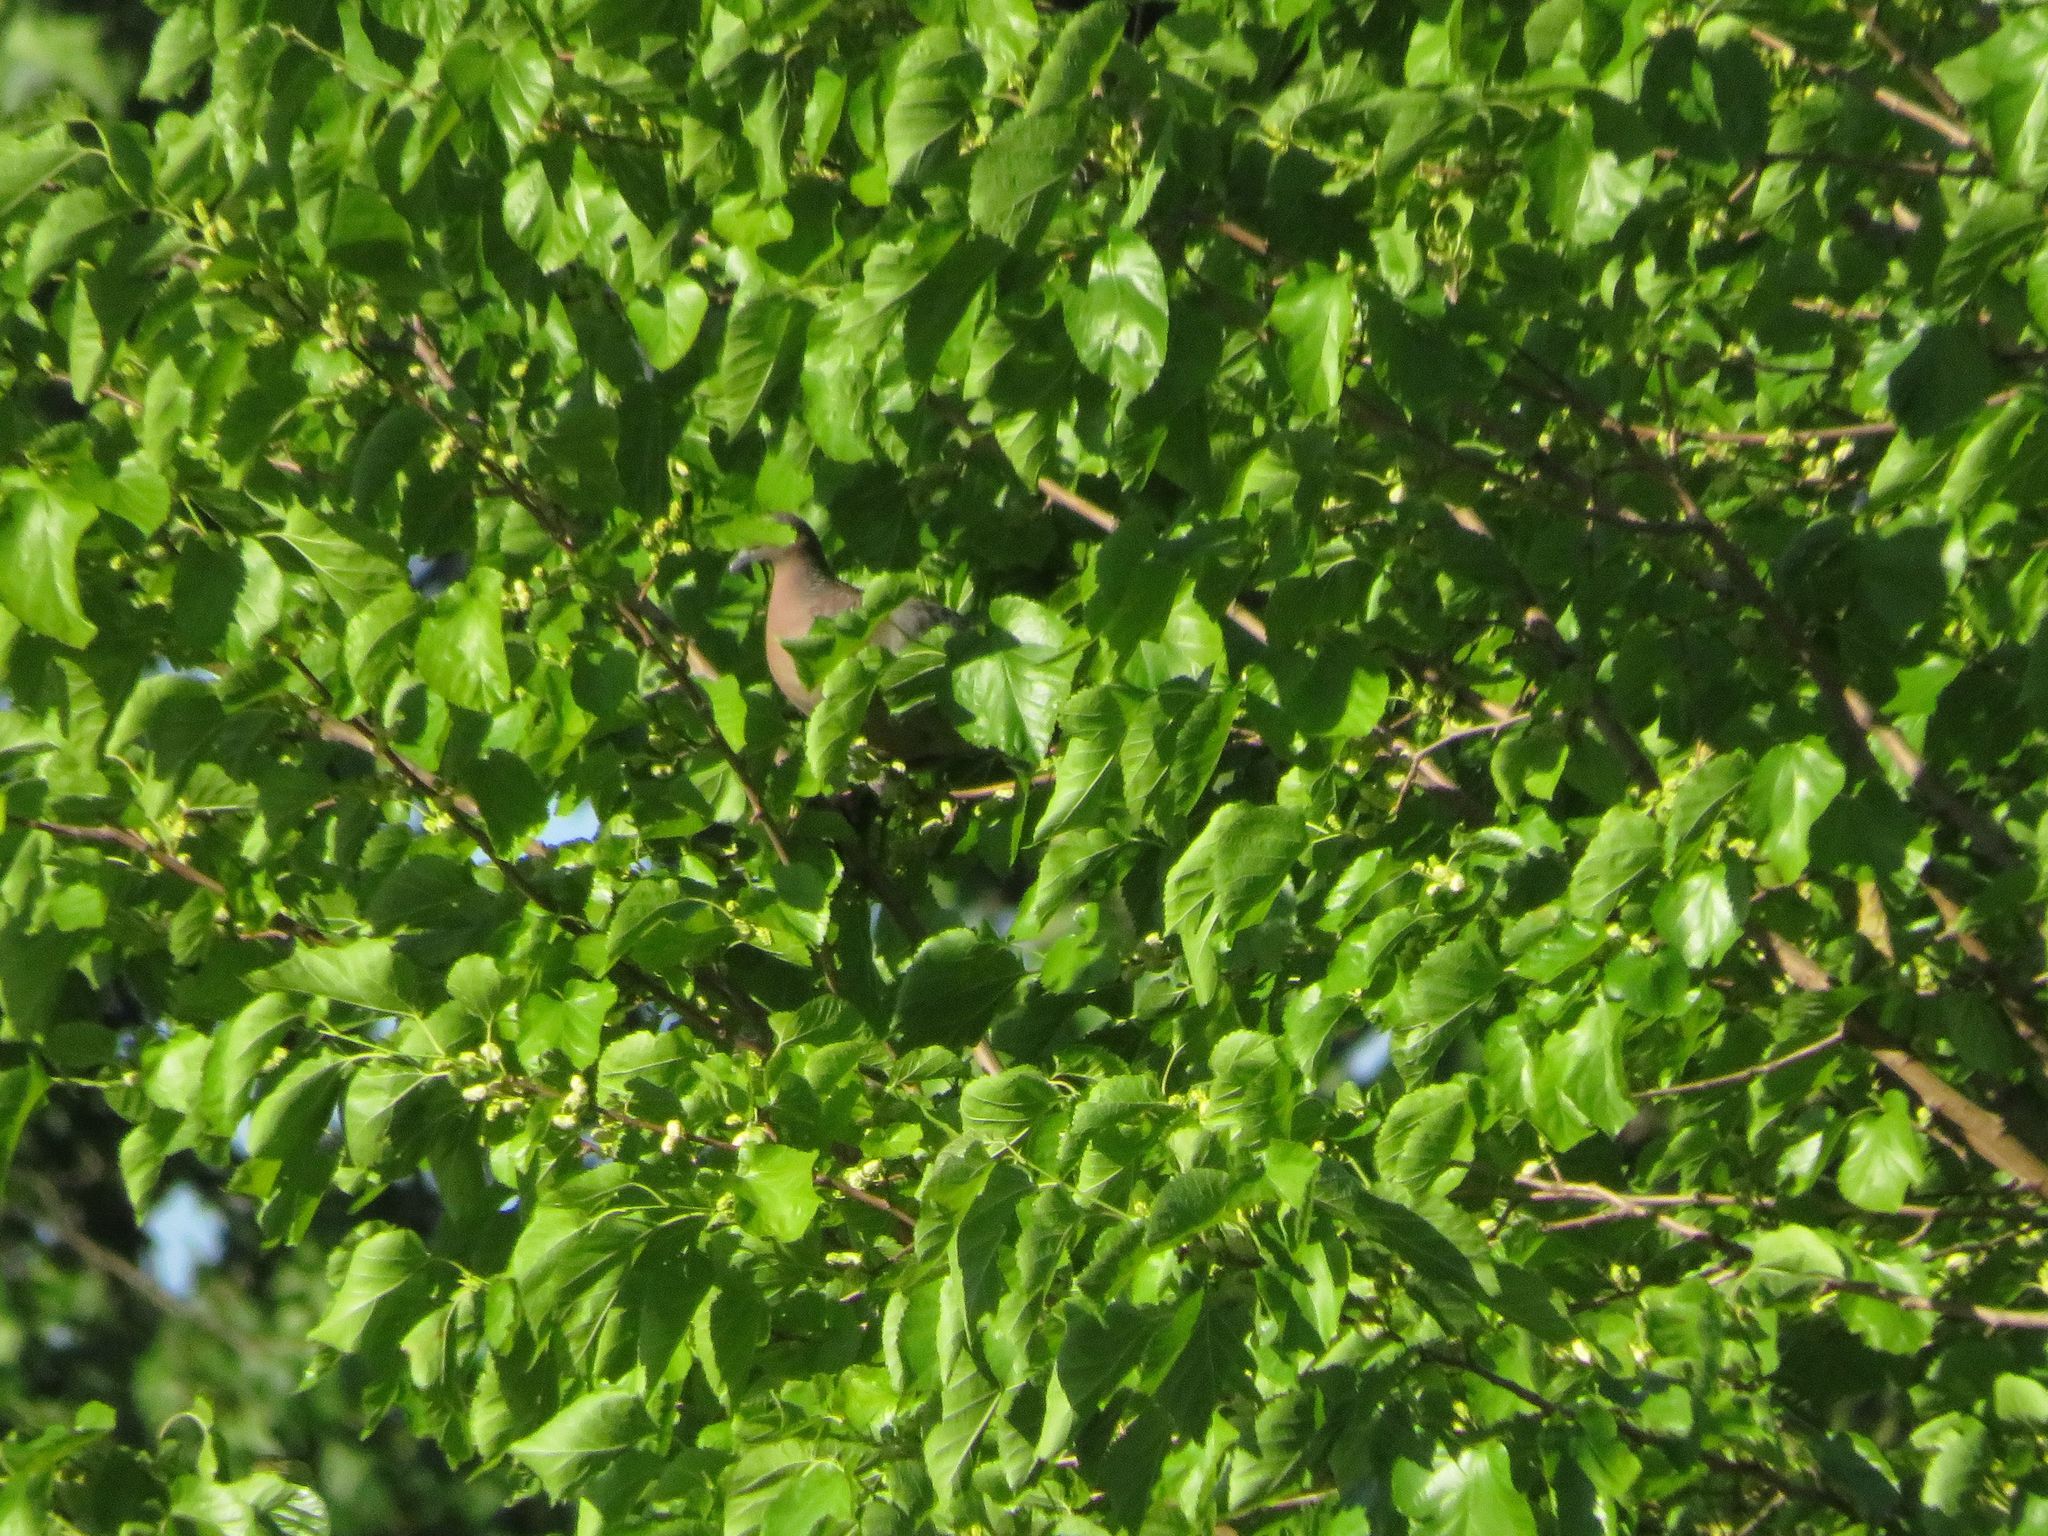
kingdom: Animalia
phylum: Chordata
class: Aves
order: Columbiformes
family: Columbidae
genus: Patagioenas
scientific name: Patagioenas picazuro
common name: Picazuro pigeon
